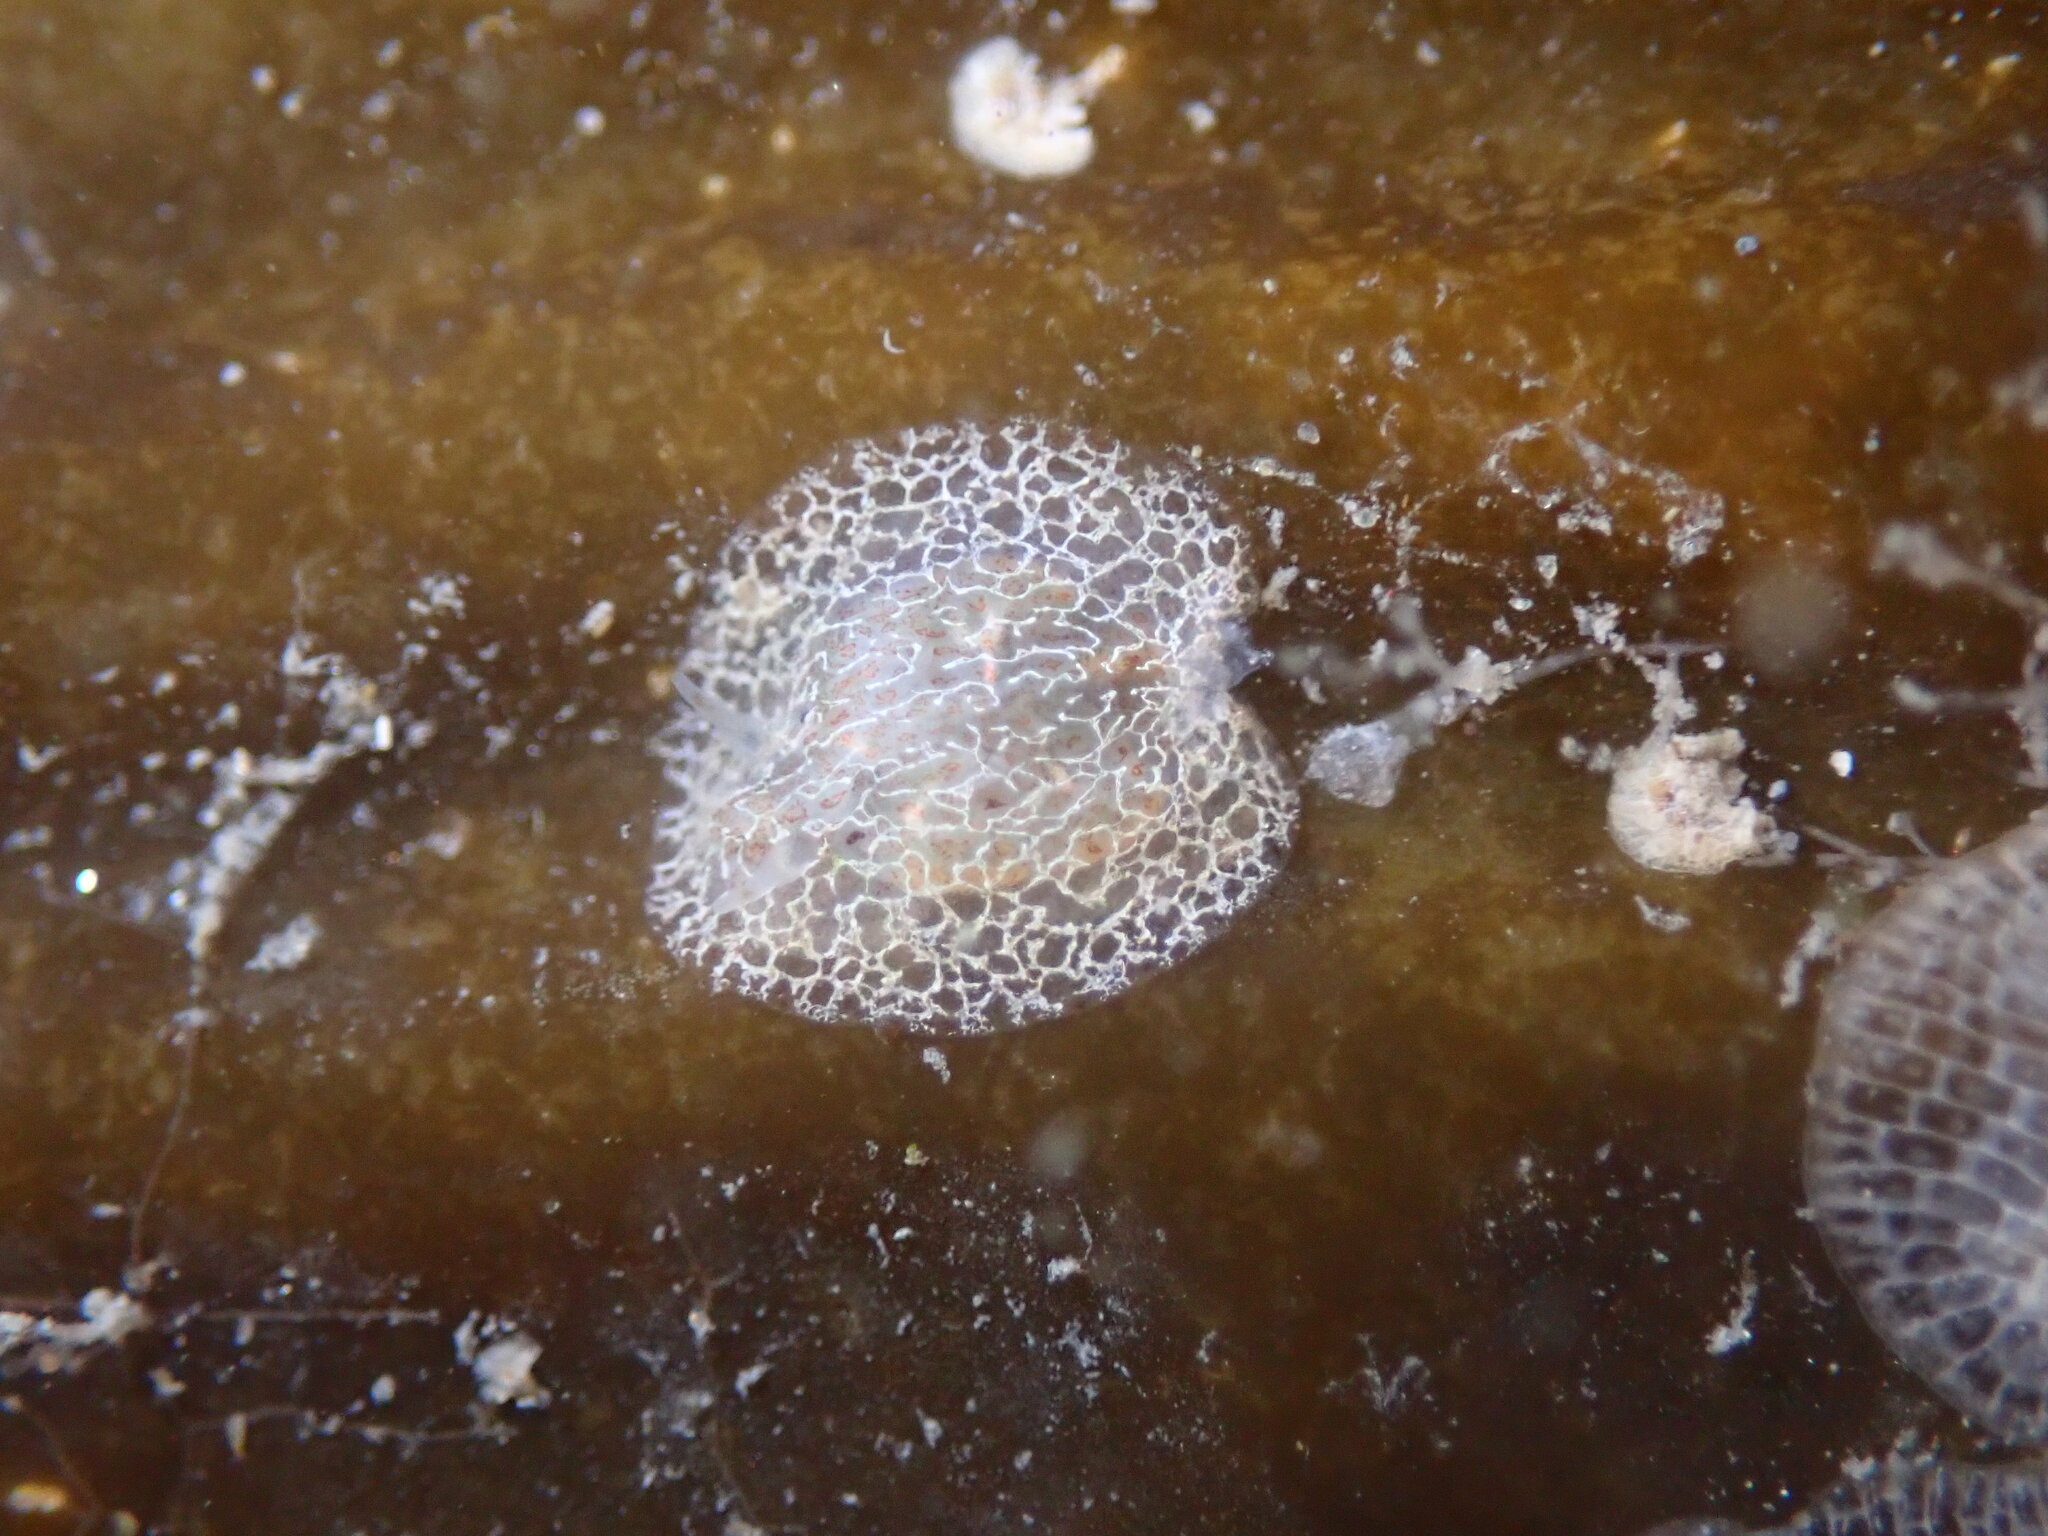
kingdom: Animalia
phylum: Mollusca
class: Gastropoda
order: Nudibranchia
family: Corambidae
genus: Corambe
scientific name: Corambe steinbergae
